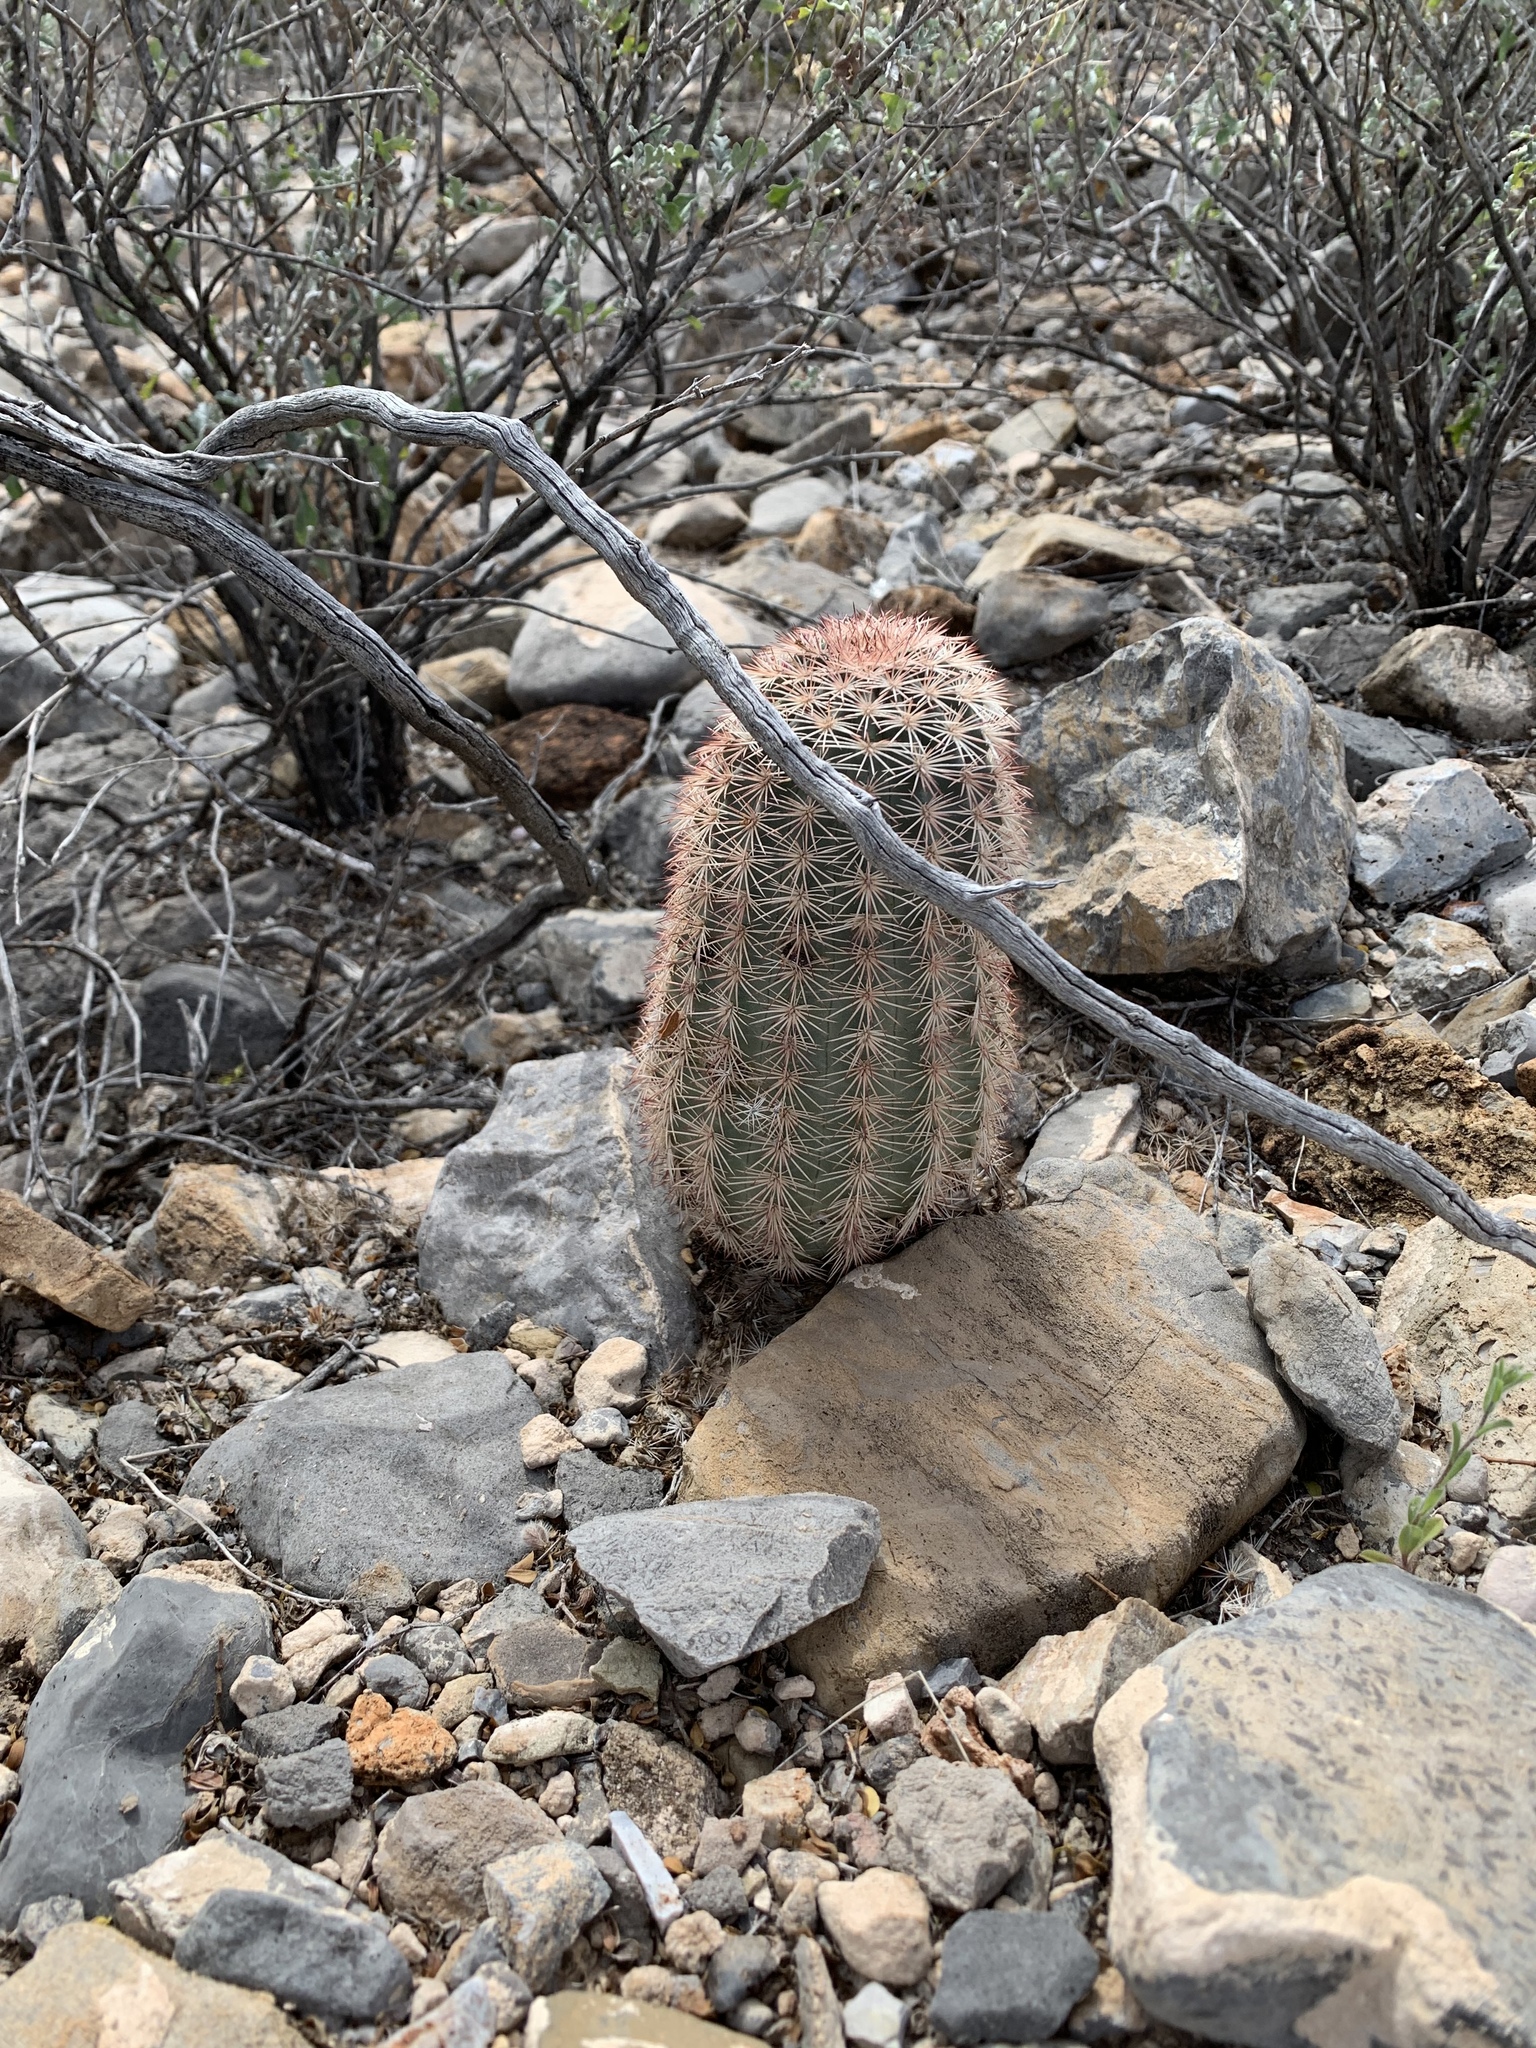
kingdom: Plantae
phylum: Tracheophyta
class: Magnoliopsida
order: Caryophyllales
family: Cactaceae
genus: Echinocereus
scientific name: Echinocereus dasyacanthus
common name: Spiny hedgehog cactus
